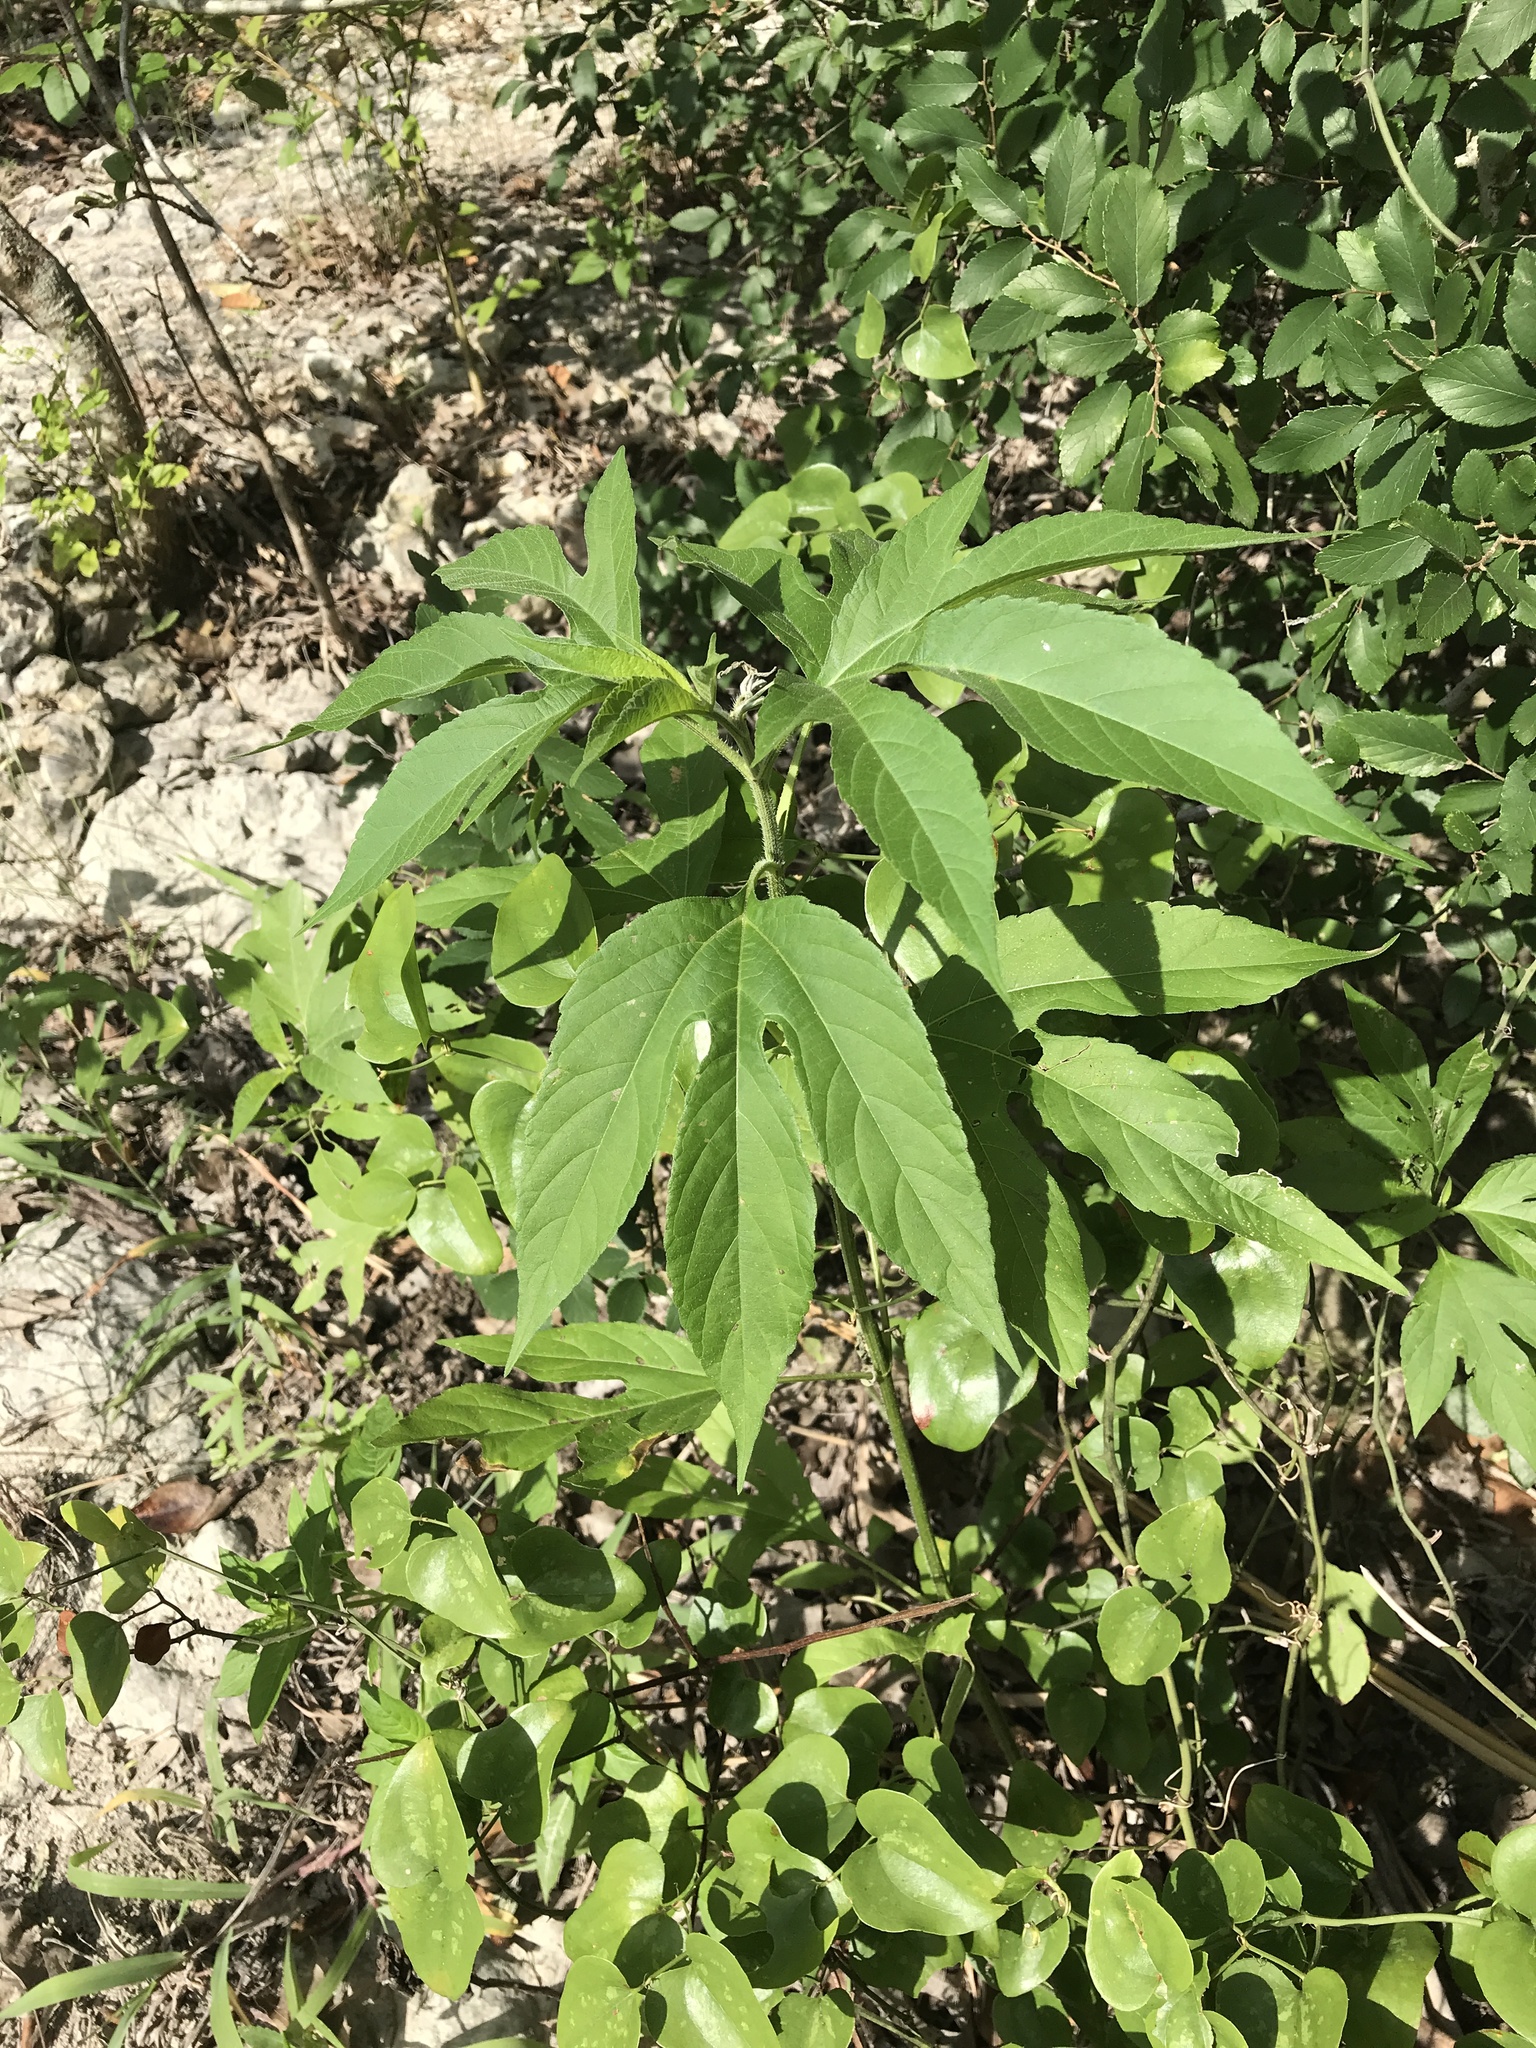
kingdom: Plantae
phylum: Tracheophyta
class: Magnoliopsida
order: Asterales
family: Asteraceae
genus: Ambrosia
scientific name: Ambrosia trifida
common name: Giant ragweed
